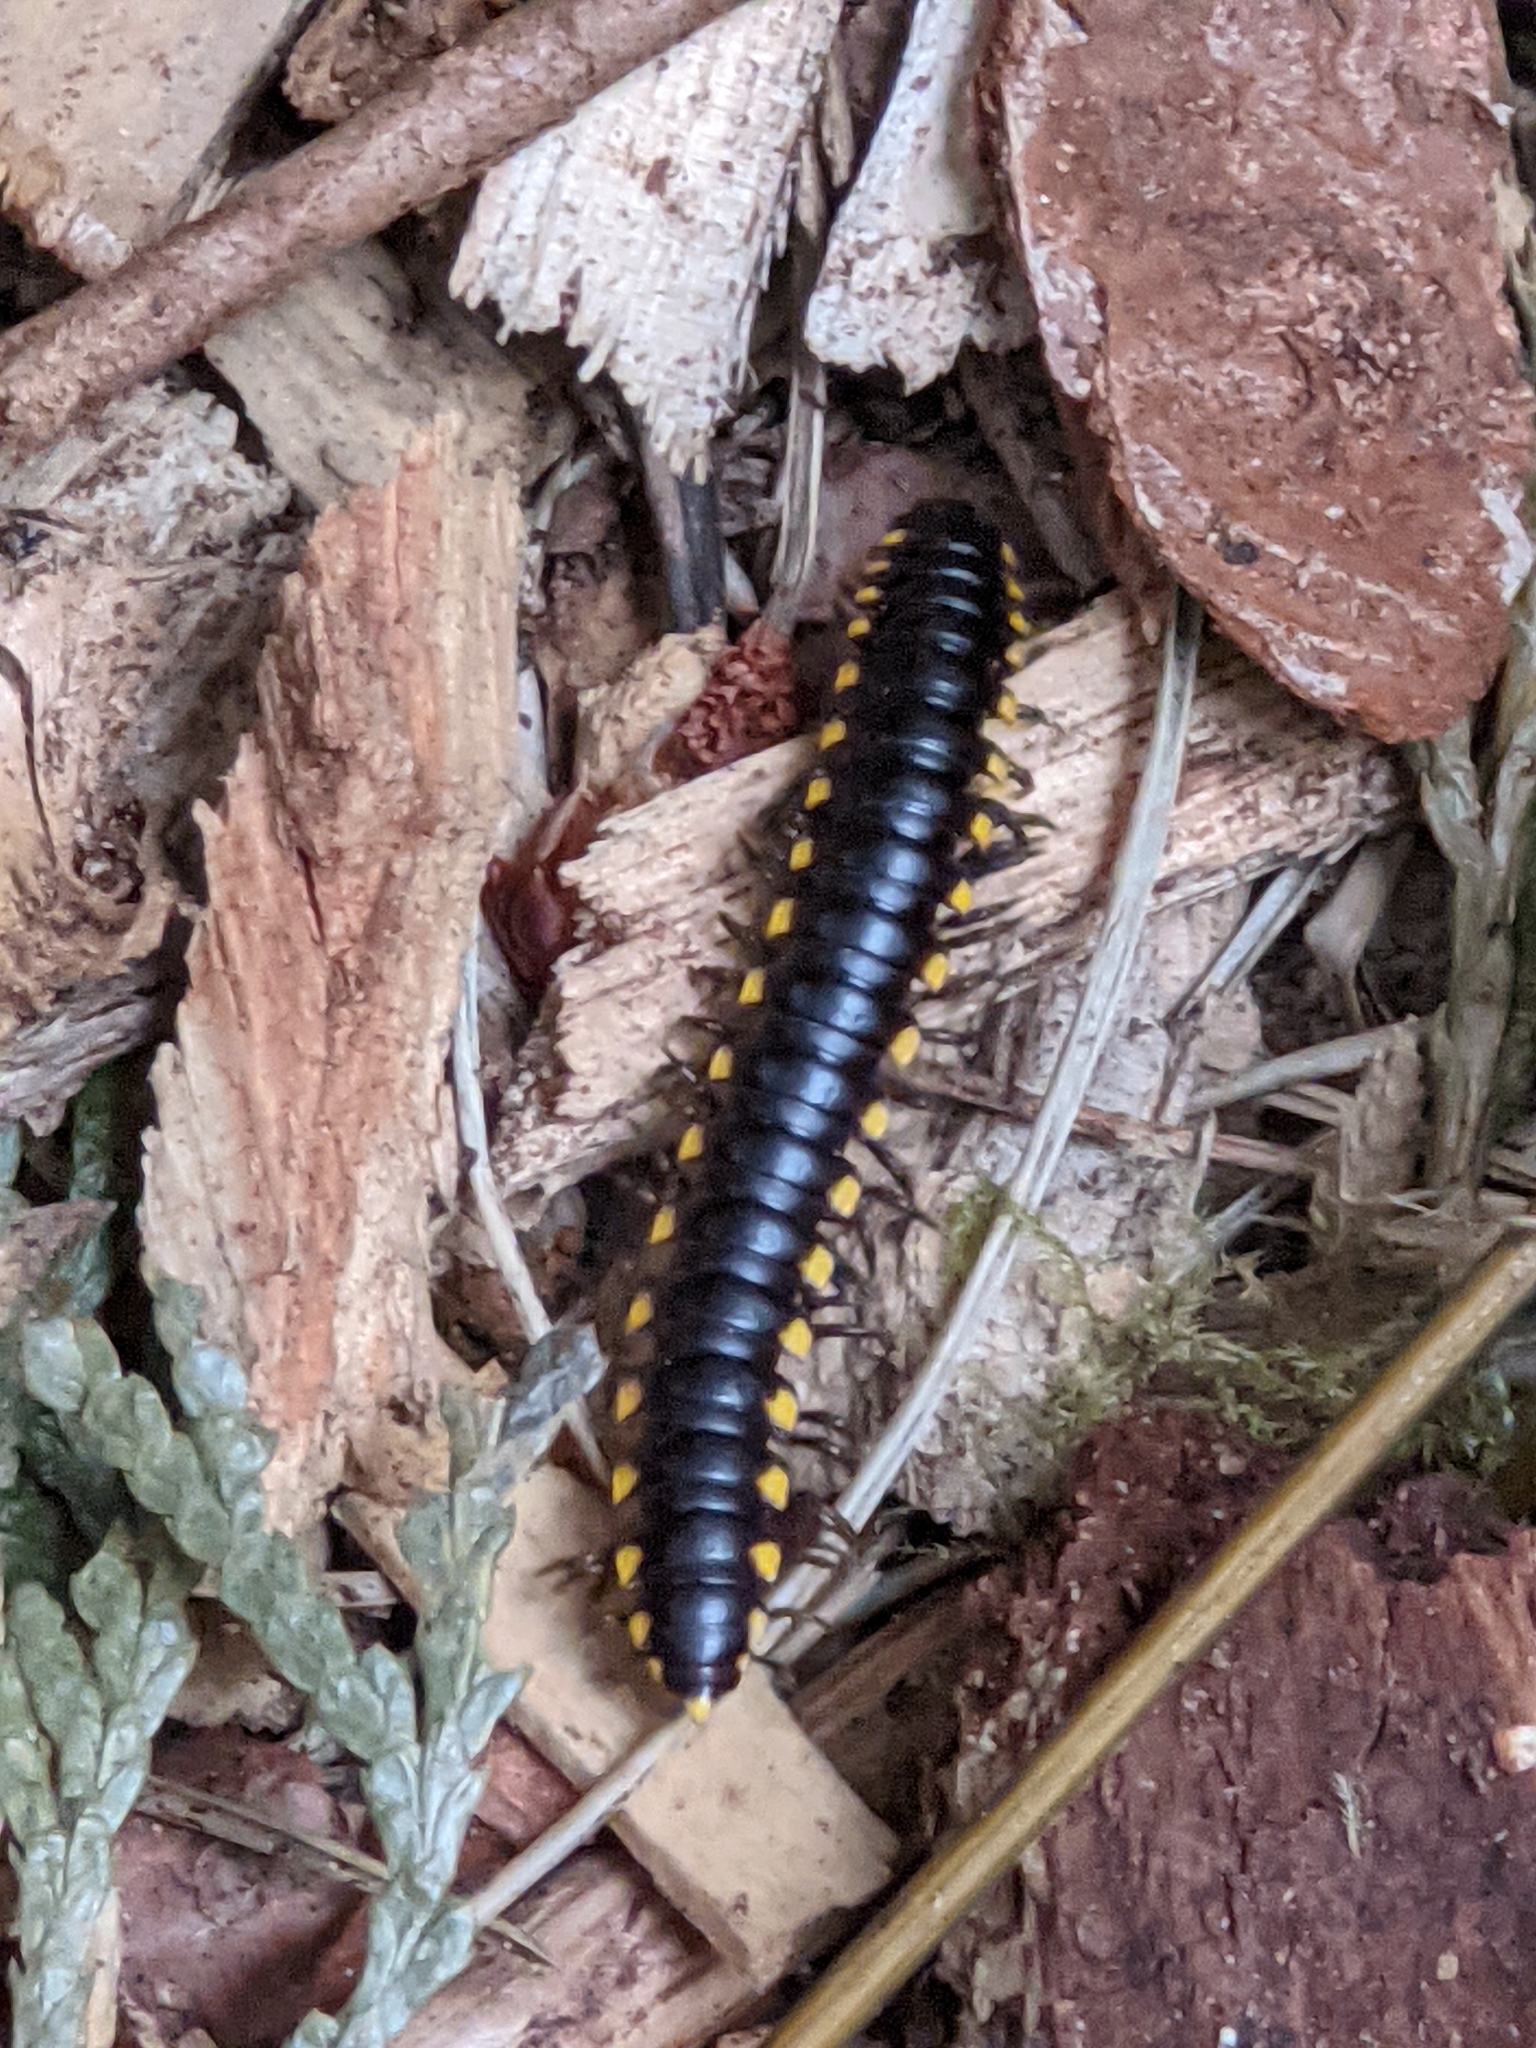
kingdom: Animalia
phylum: Arthropoda
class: Diplopoda
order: Polydesmida
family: Xystodesmidae
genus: Harpaphe
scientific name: Harpaphe haydeniana
